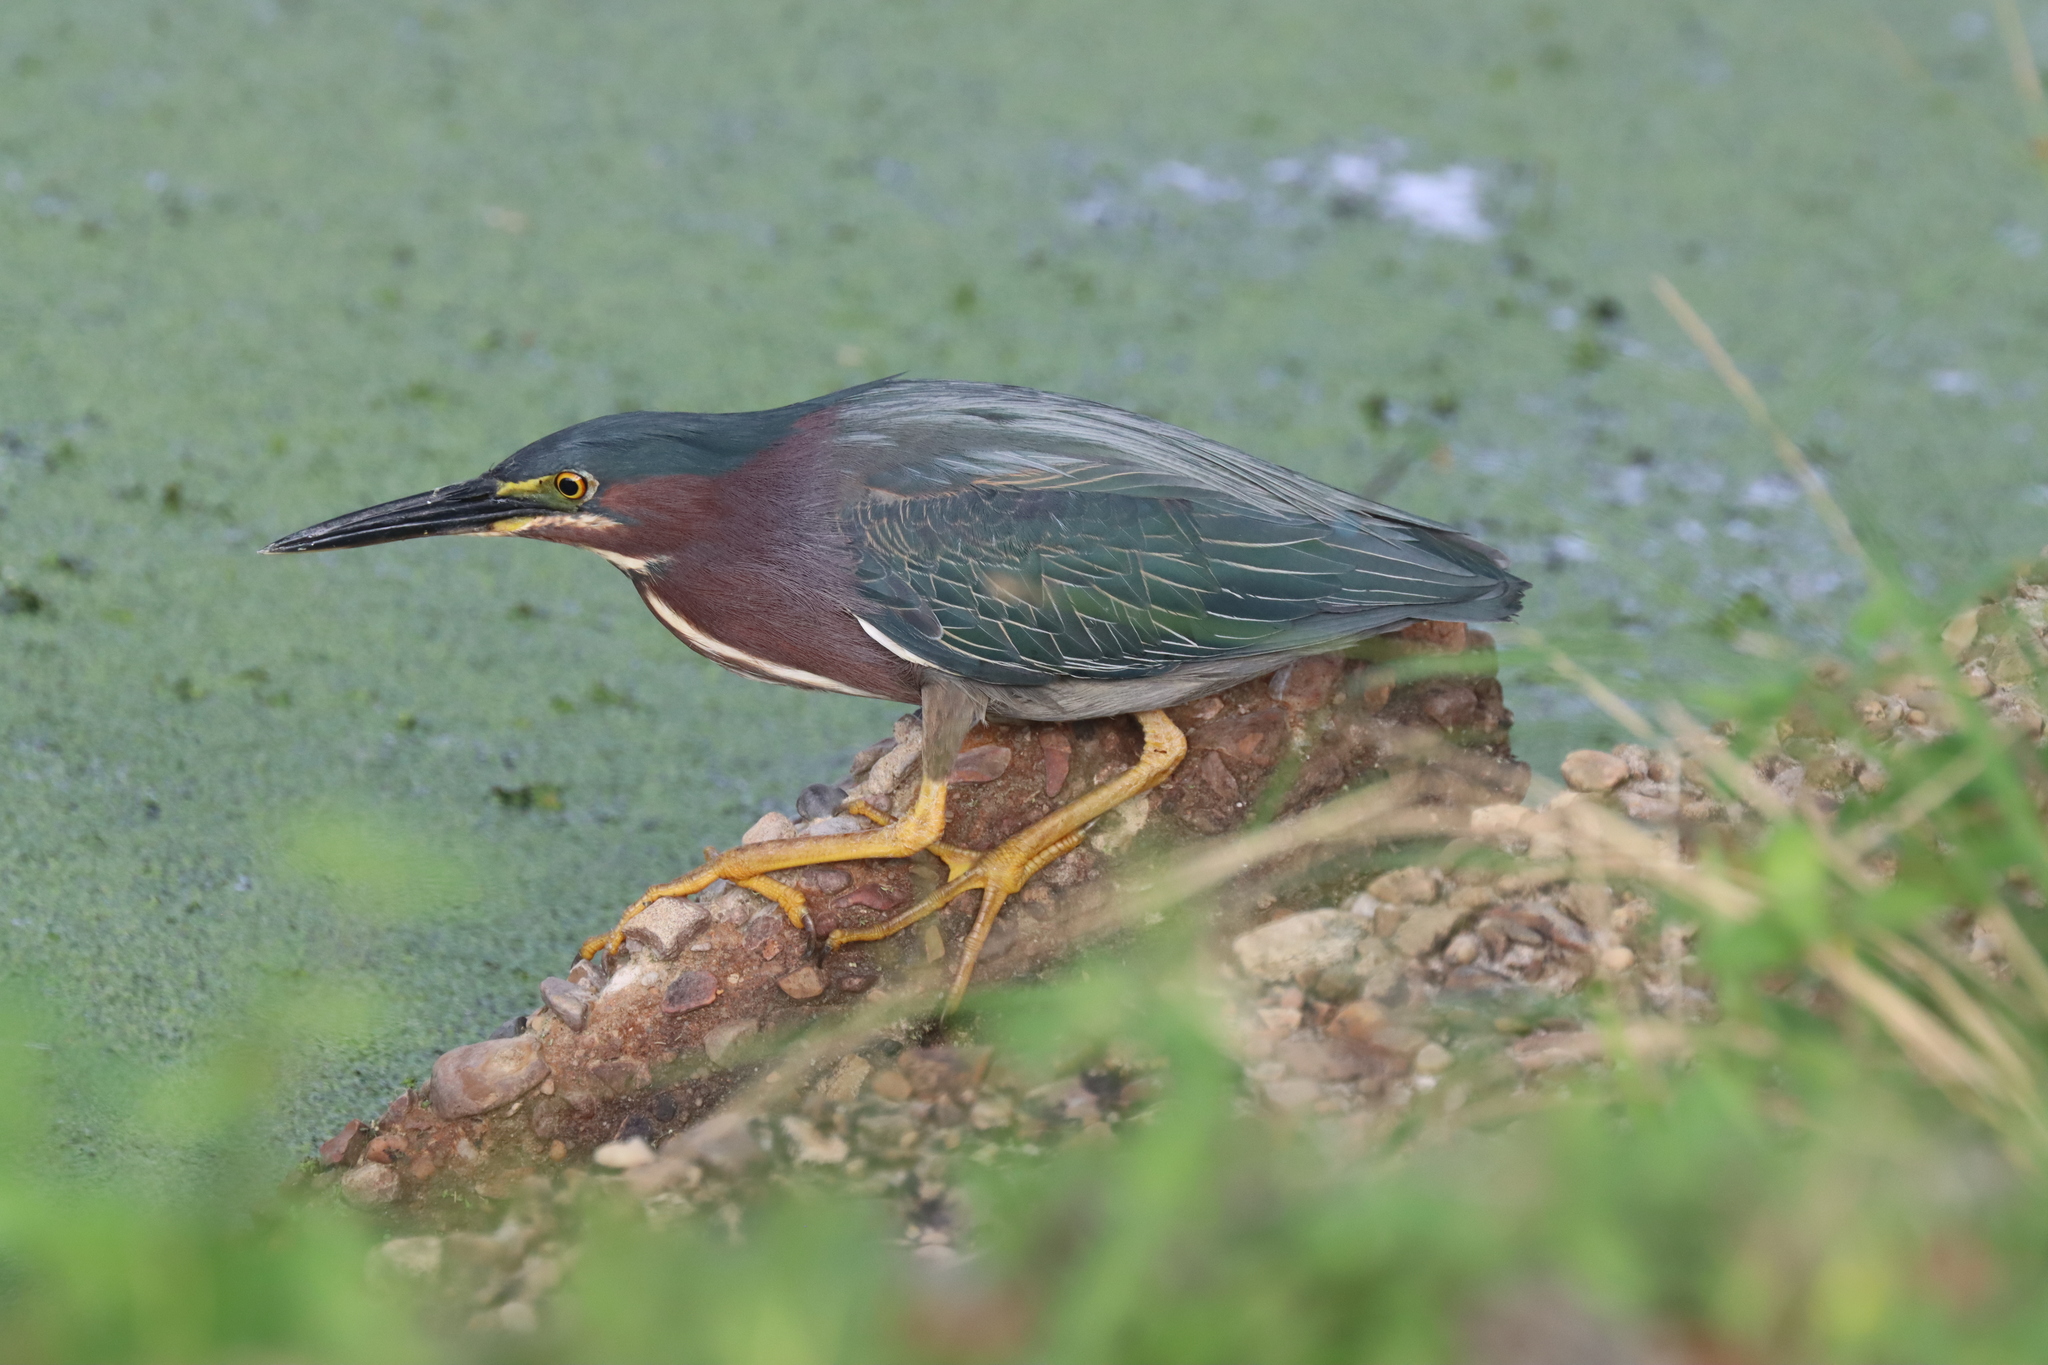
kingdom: Animalia
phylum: Chordata
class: Aves
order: Pelecaniformes
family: Ardeidae
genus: Butorides
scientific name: Butorides virescens
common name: Green heron
